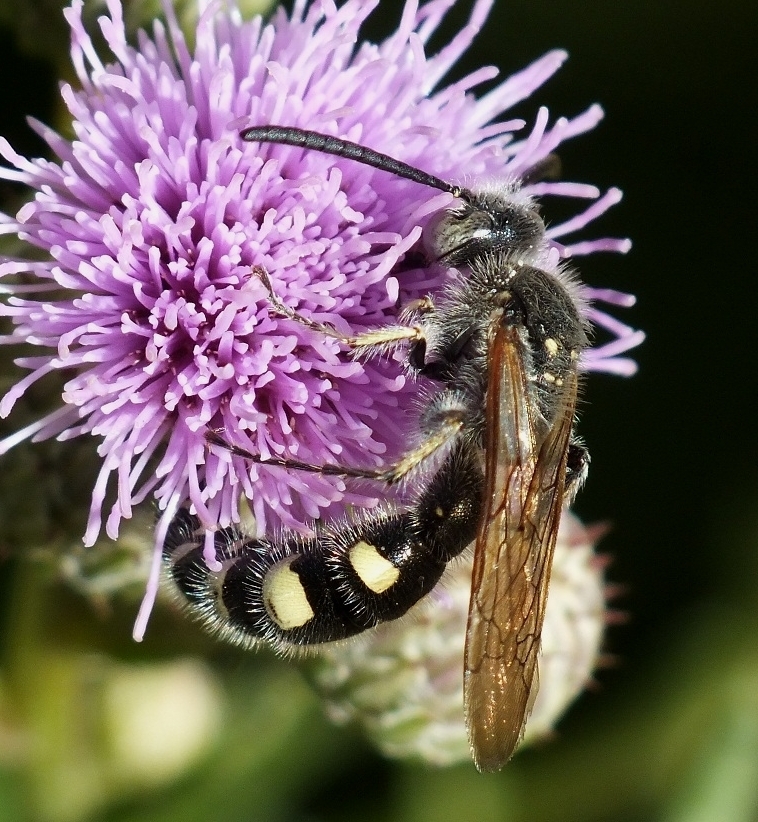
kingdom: Animalia
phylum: Arthropoda
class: Insecta
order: Hymenoptera
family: Vespidae
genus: Vespa
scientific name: Vespa sexmaculata
